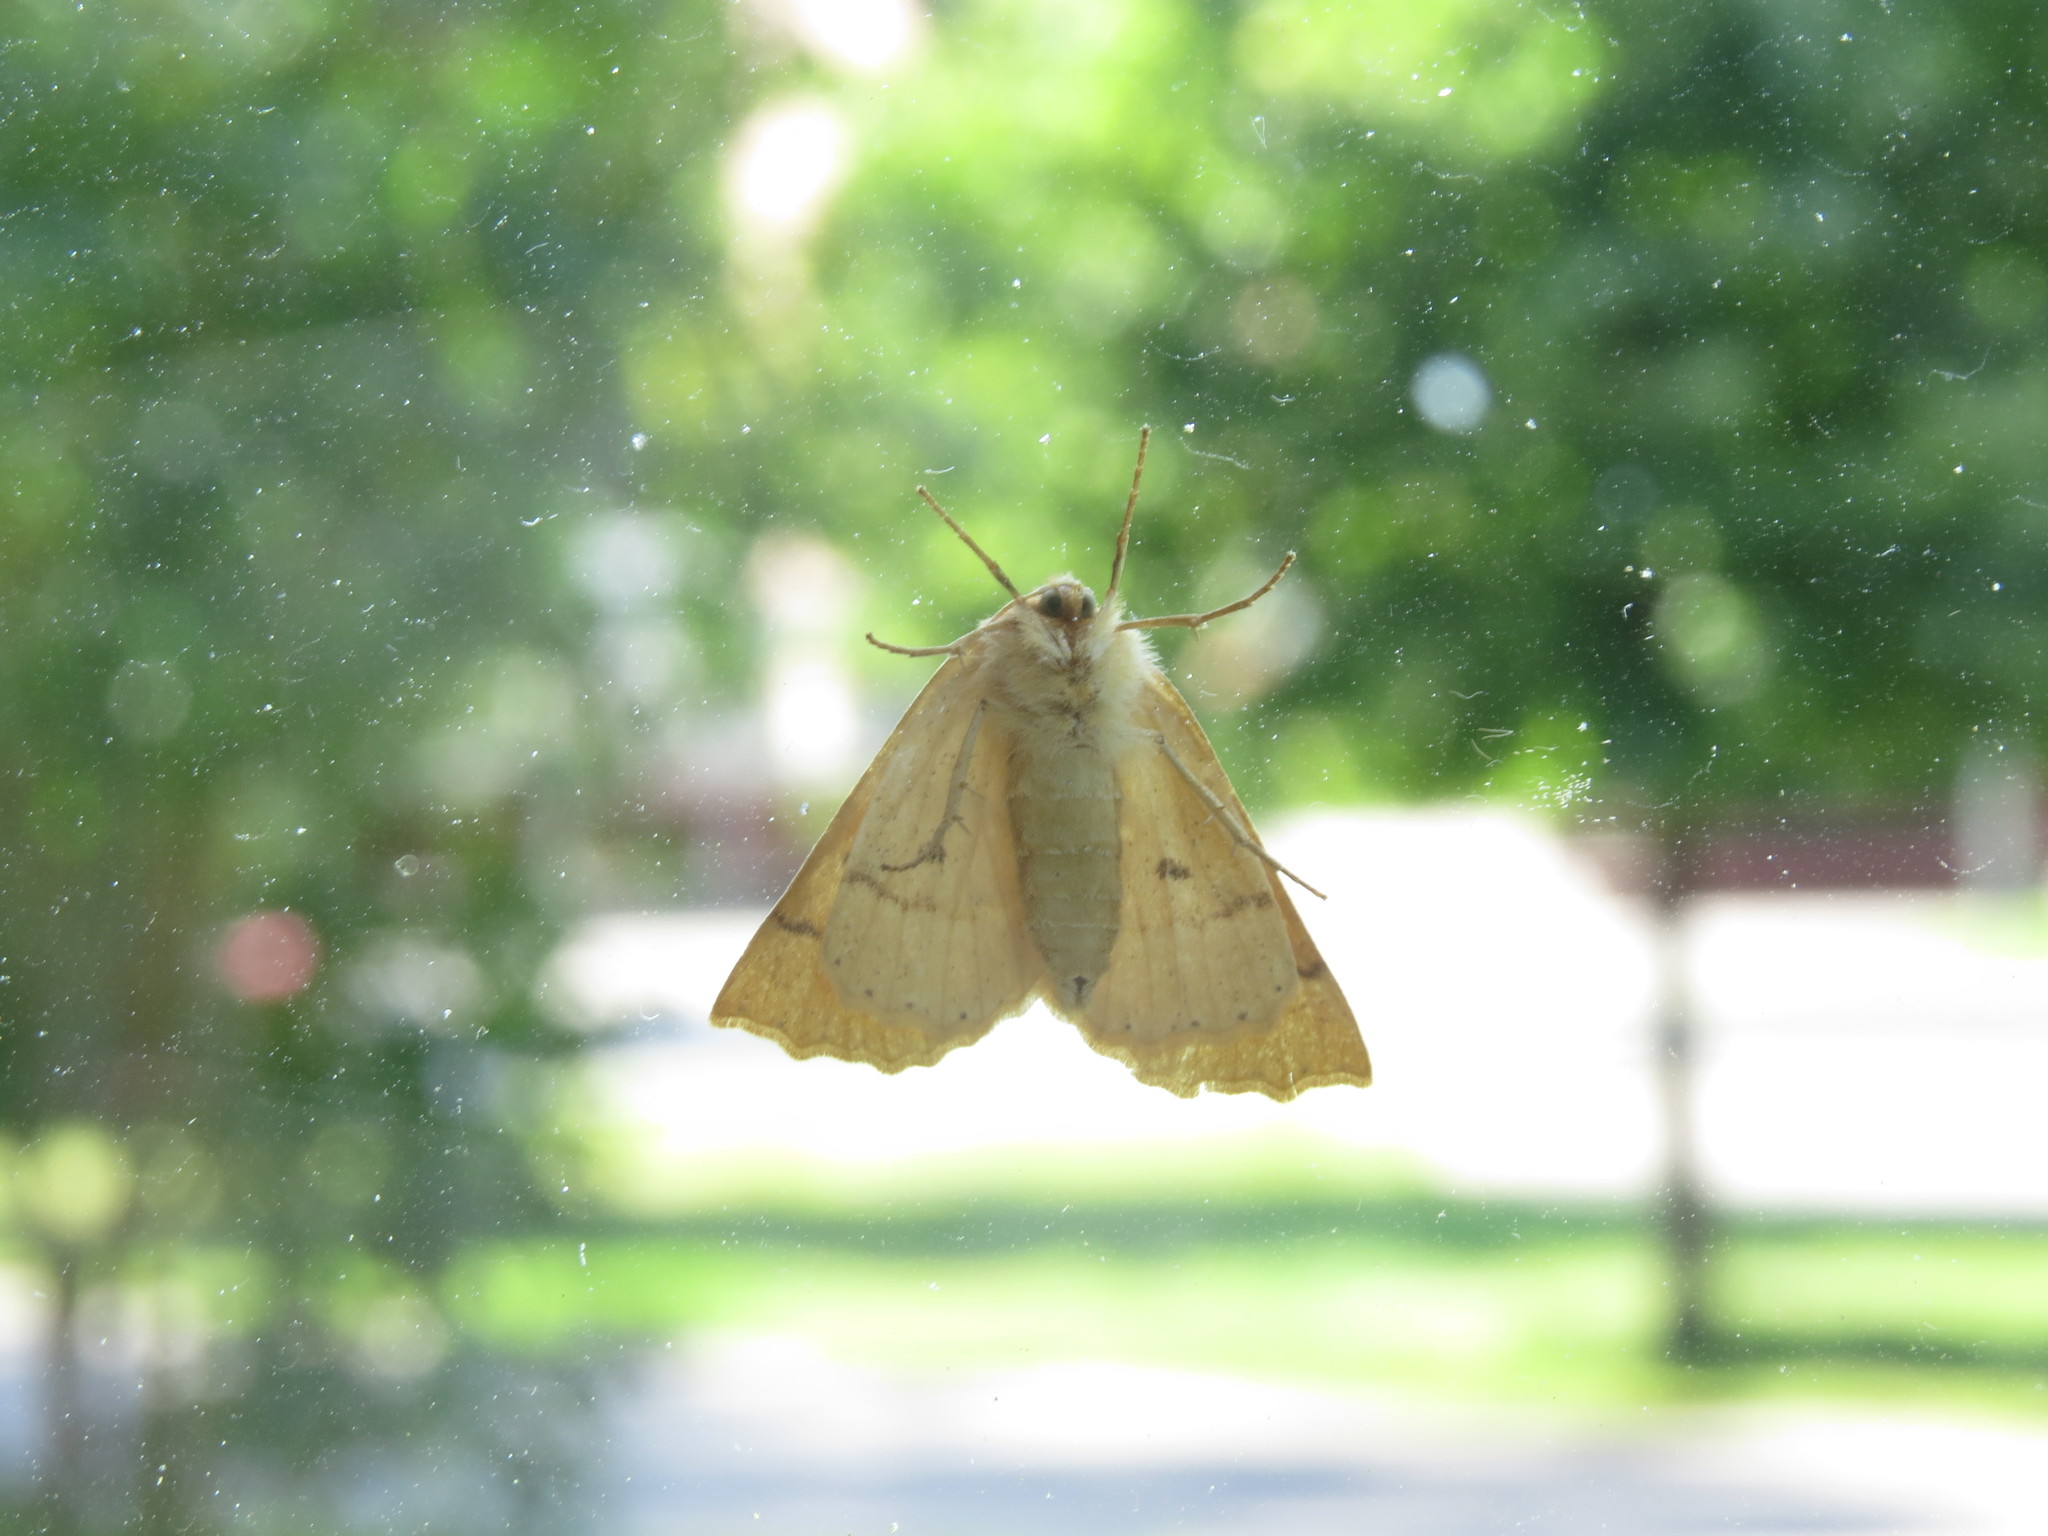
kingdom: Animalia
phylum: Arthropoda
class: Insecta
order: Lepidoptera
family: Geometridae
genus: Crocallis
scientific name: Crocallis elinguaria
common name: Scalloped oak
